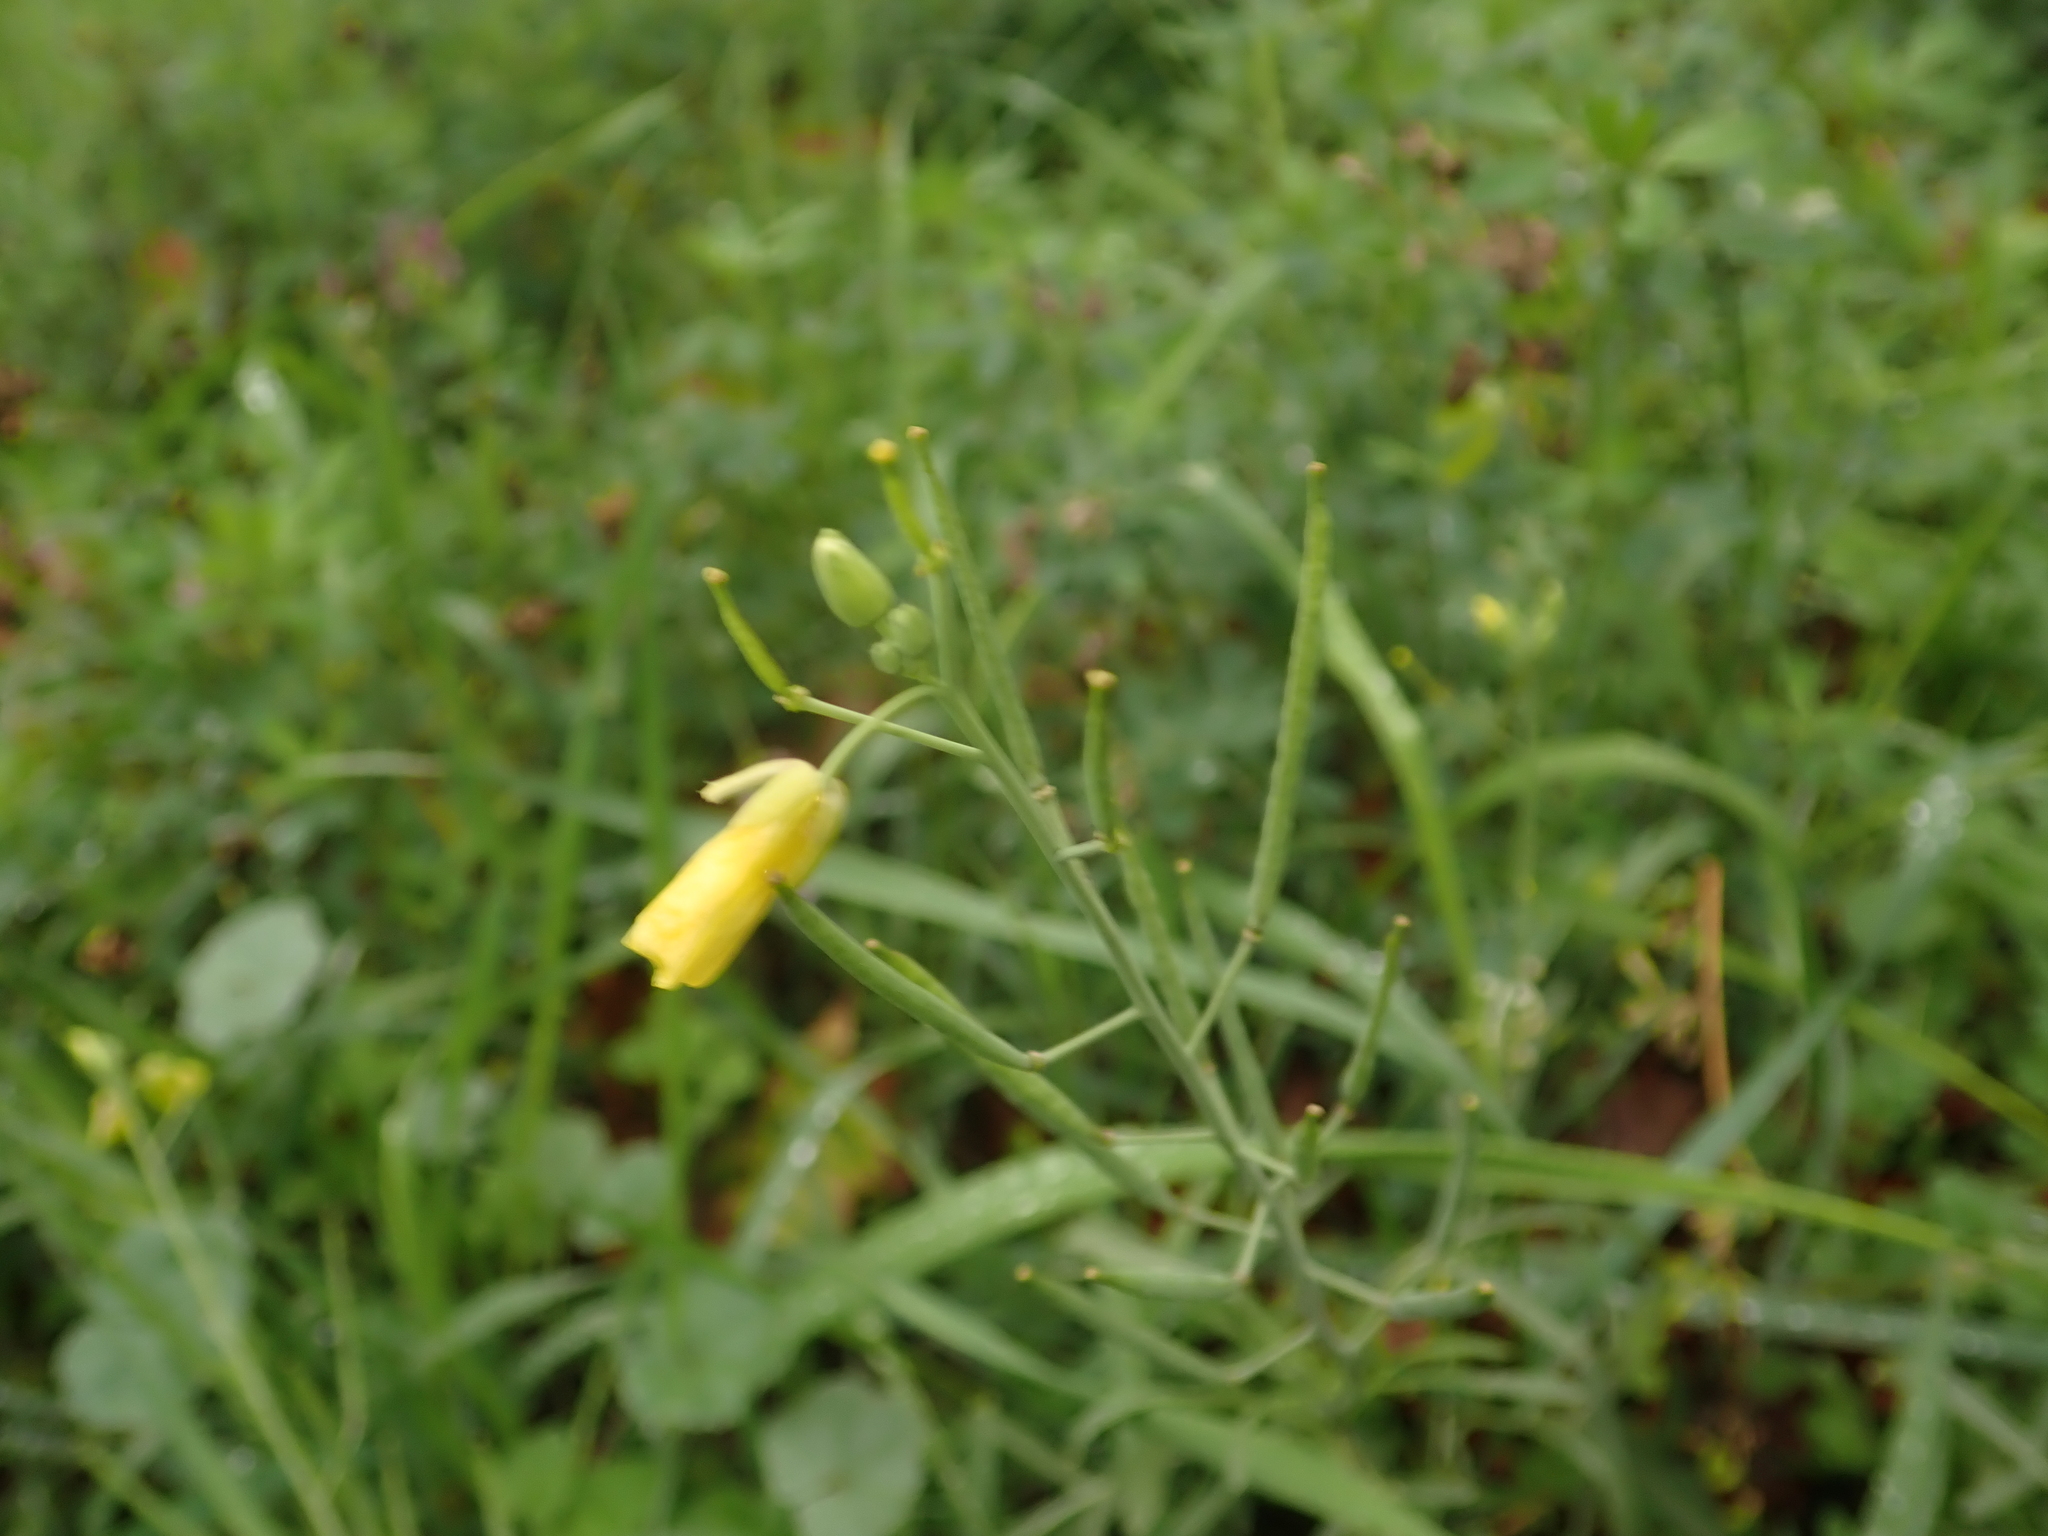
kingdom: Plantae
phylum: Tracheophyta
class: Magnoliopsida
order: Brassicales
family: Brassicaceae
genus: Diplotaxis
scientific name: Diplotaxis tenuifolia
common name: Perennial wall-rocket
